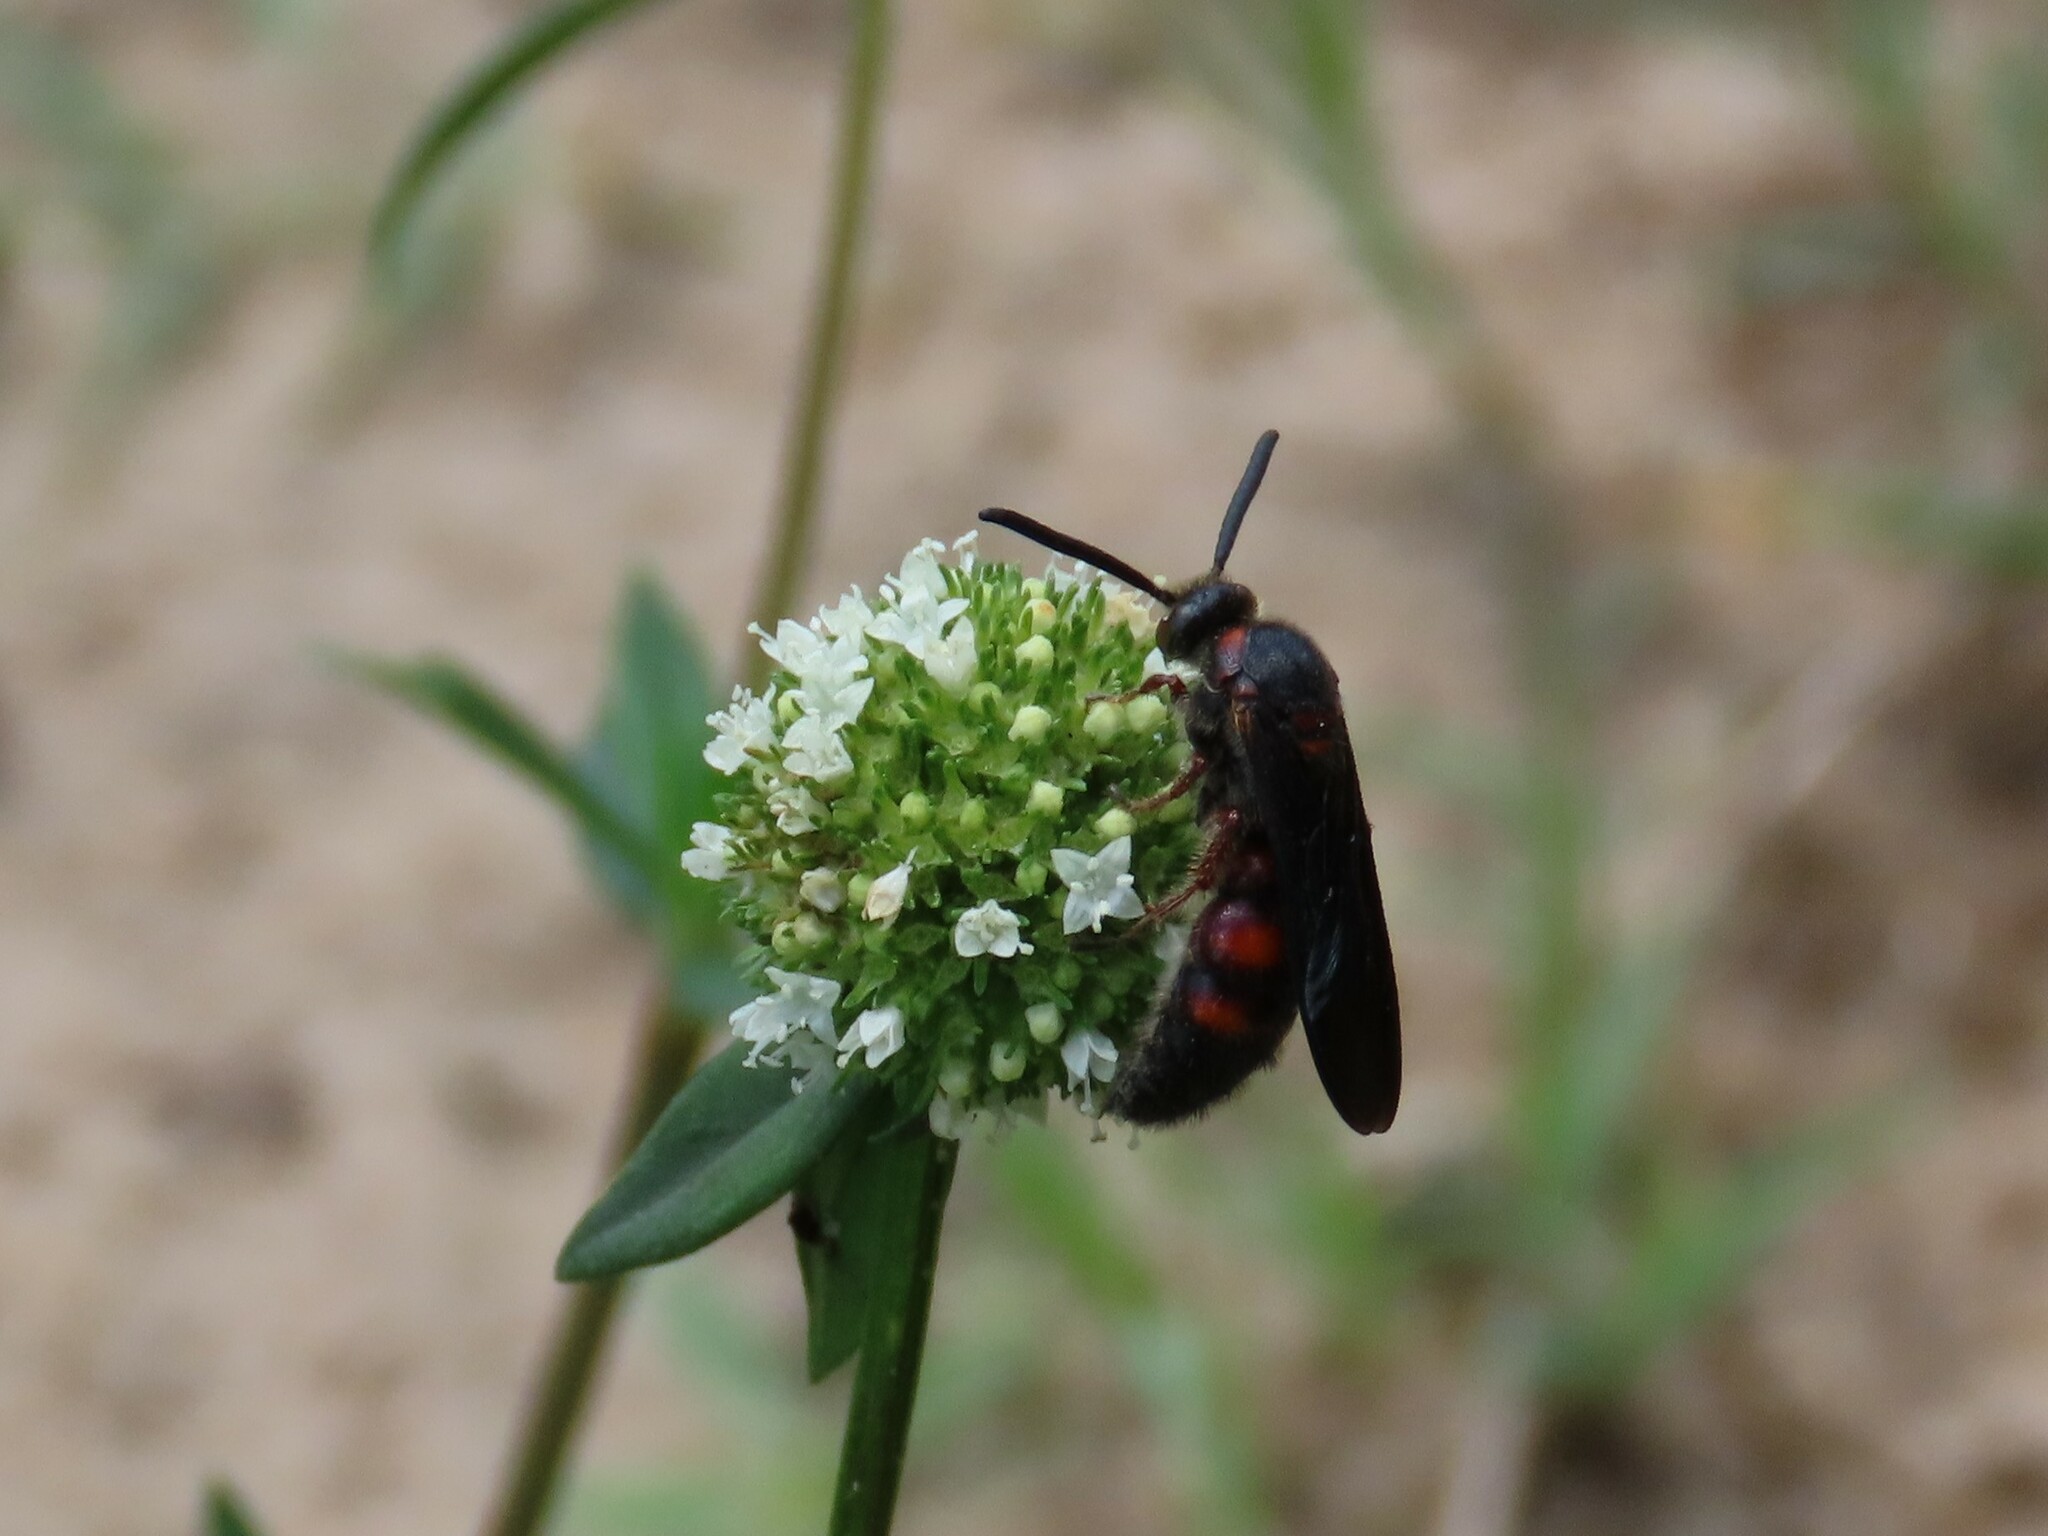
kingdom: Animalia
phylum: Arthropoda
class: Insecta
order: Hymenoptera
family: Scoliidae
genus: Scolia
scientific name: Scolia nobilitata
